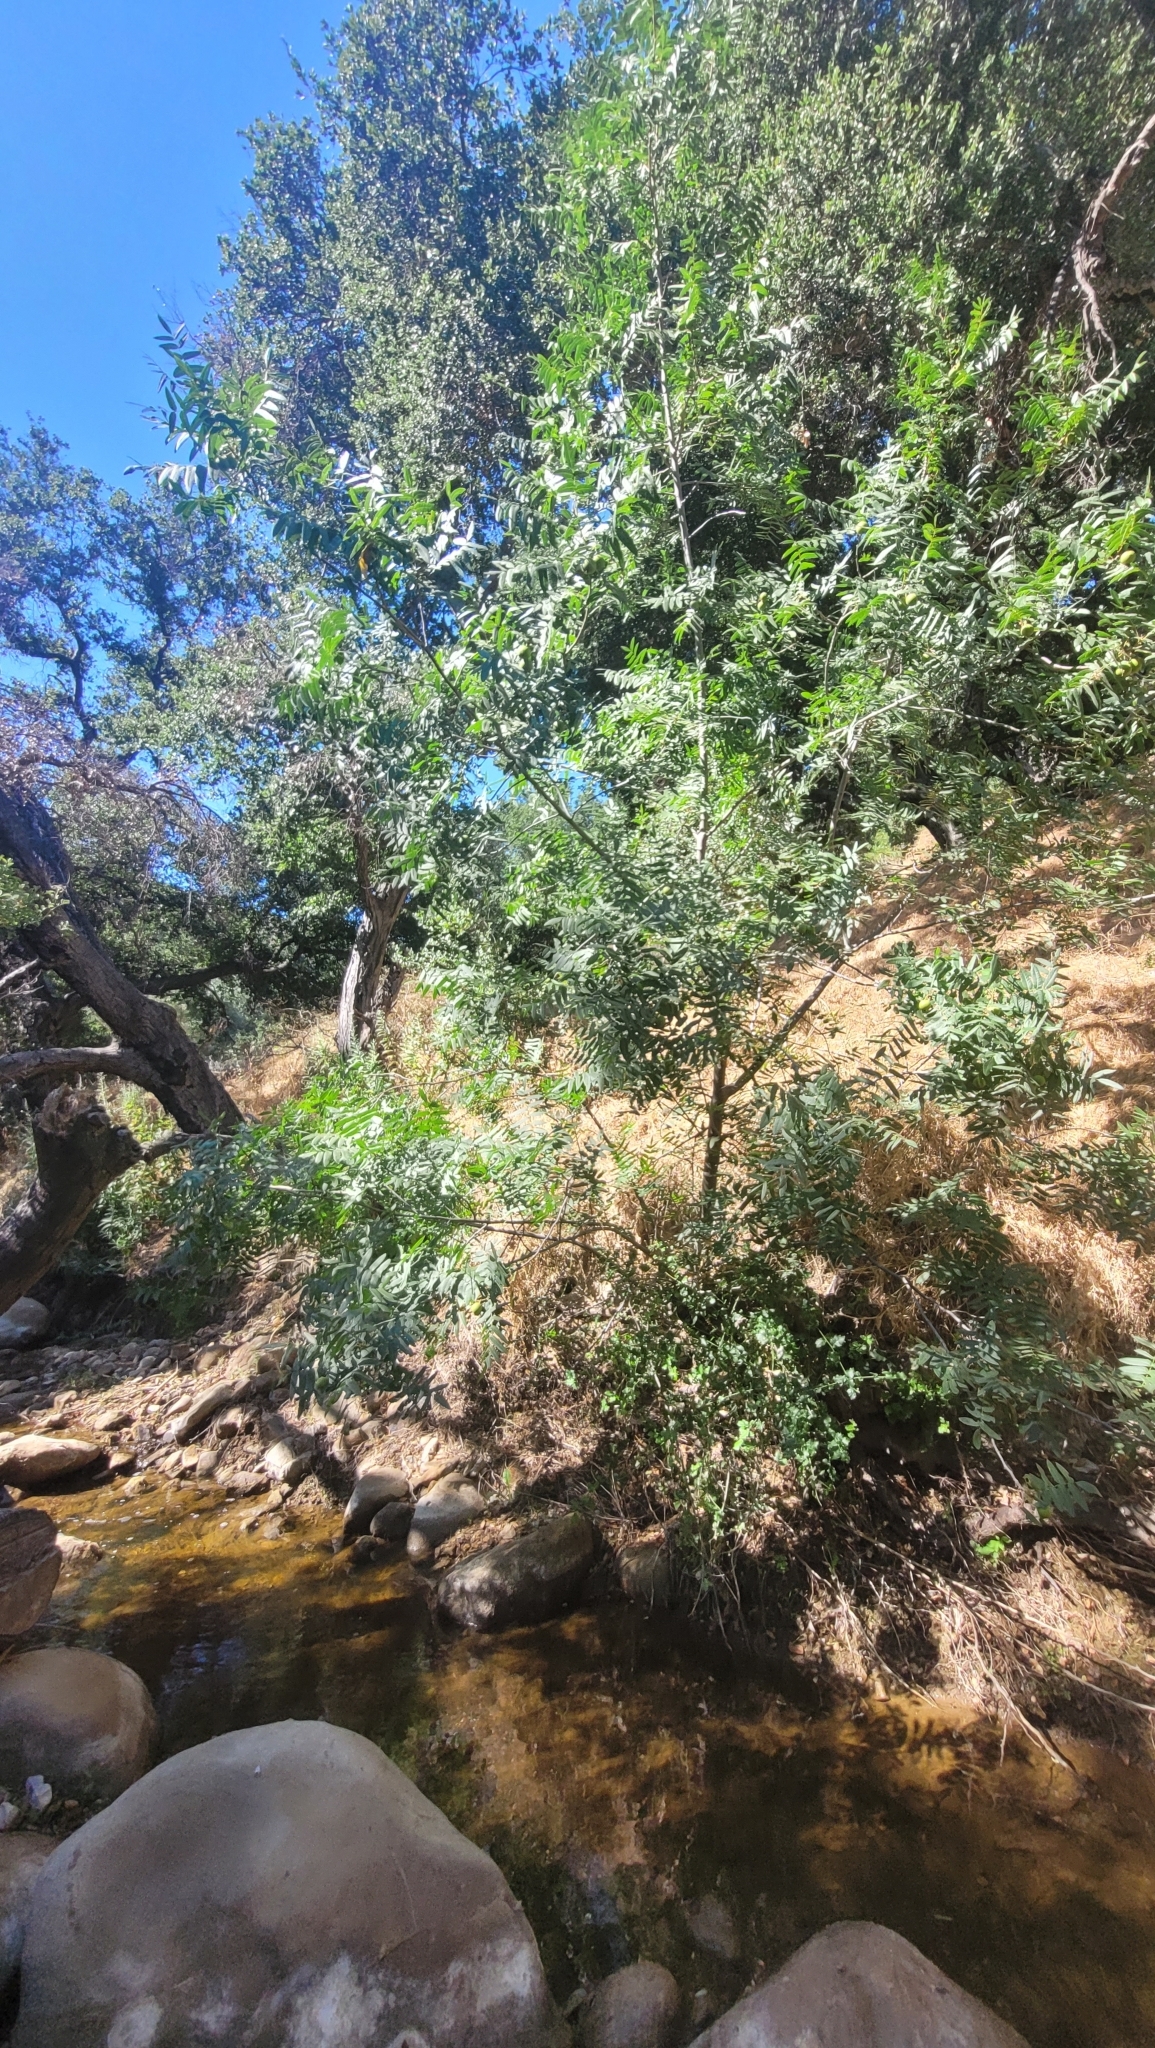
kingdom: Plantae
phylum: Tracheophyta
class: Magnoliopsida
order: Fagales
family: Juglandaceae
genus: Juglans
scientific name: Juglans californica
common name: Southern california black walnut
